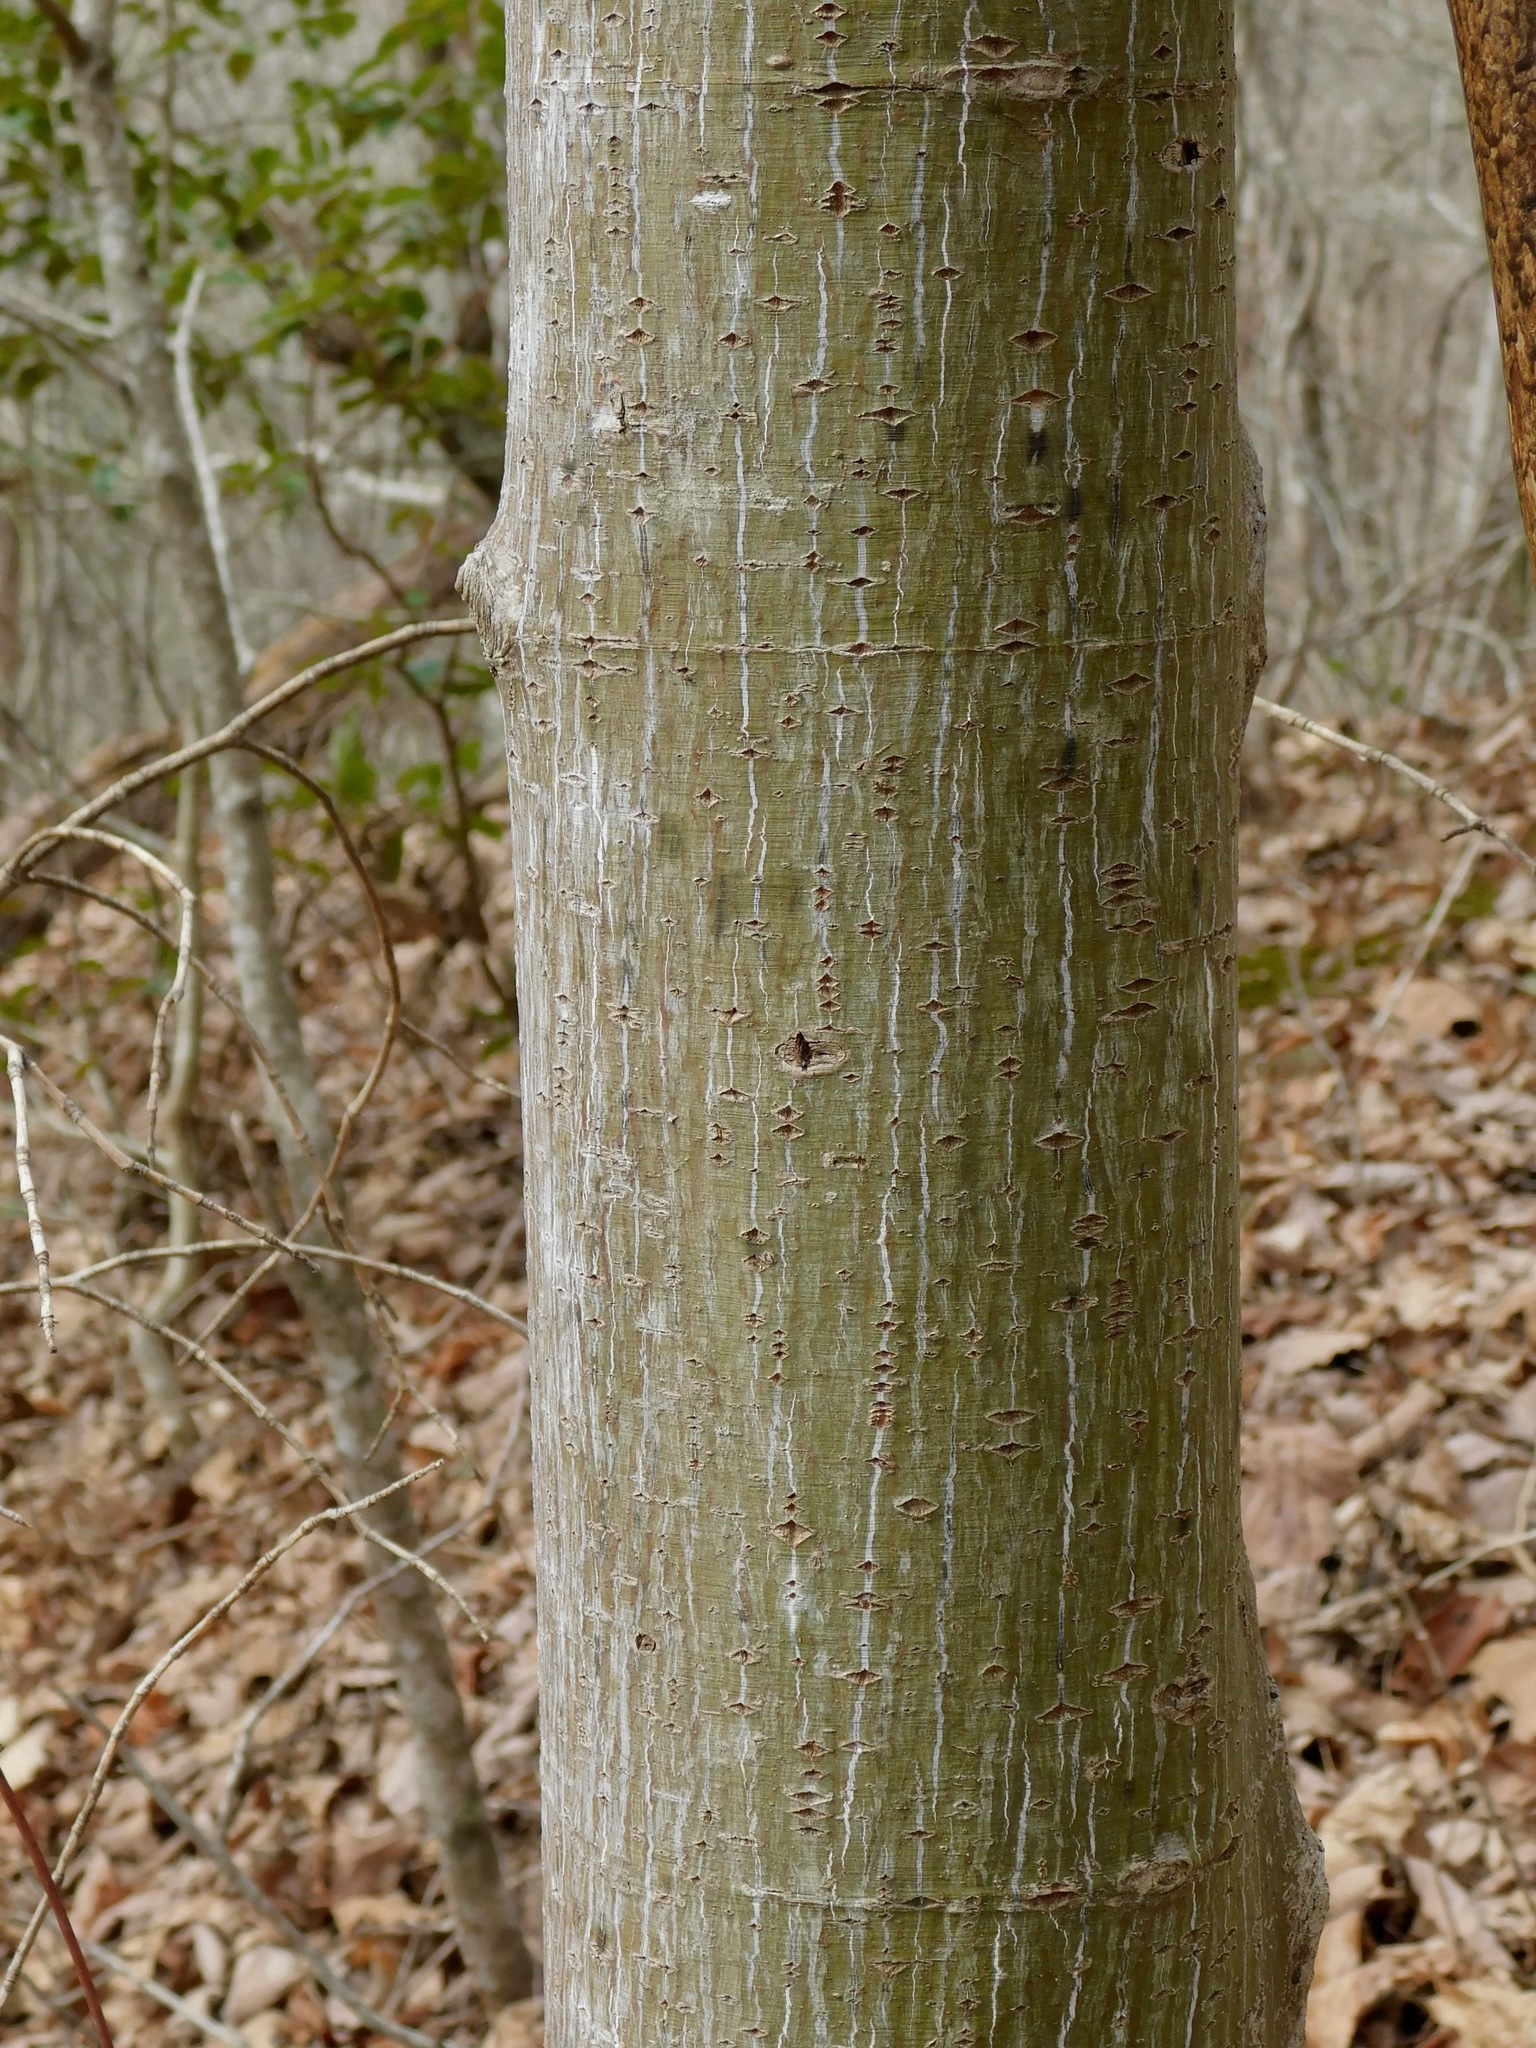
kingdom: Plantae
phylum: Tracheophyta
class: Magnoliopsida
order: Sapindales
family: Sapindaceae
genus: Acer
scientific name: Acer pensylvanicum
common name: Moosewood
